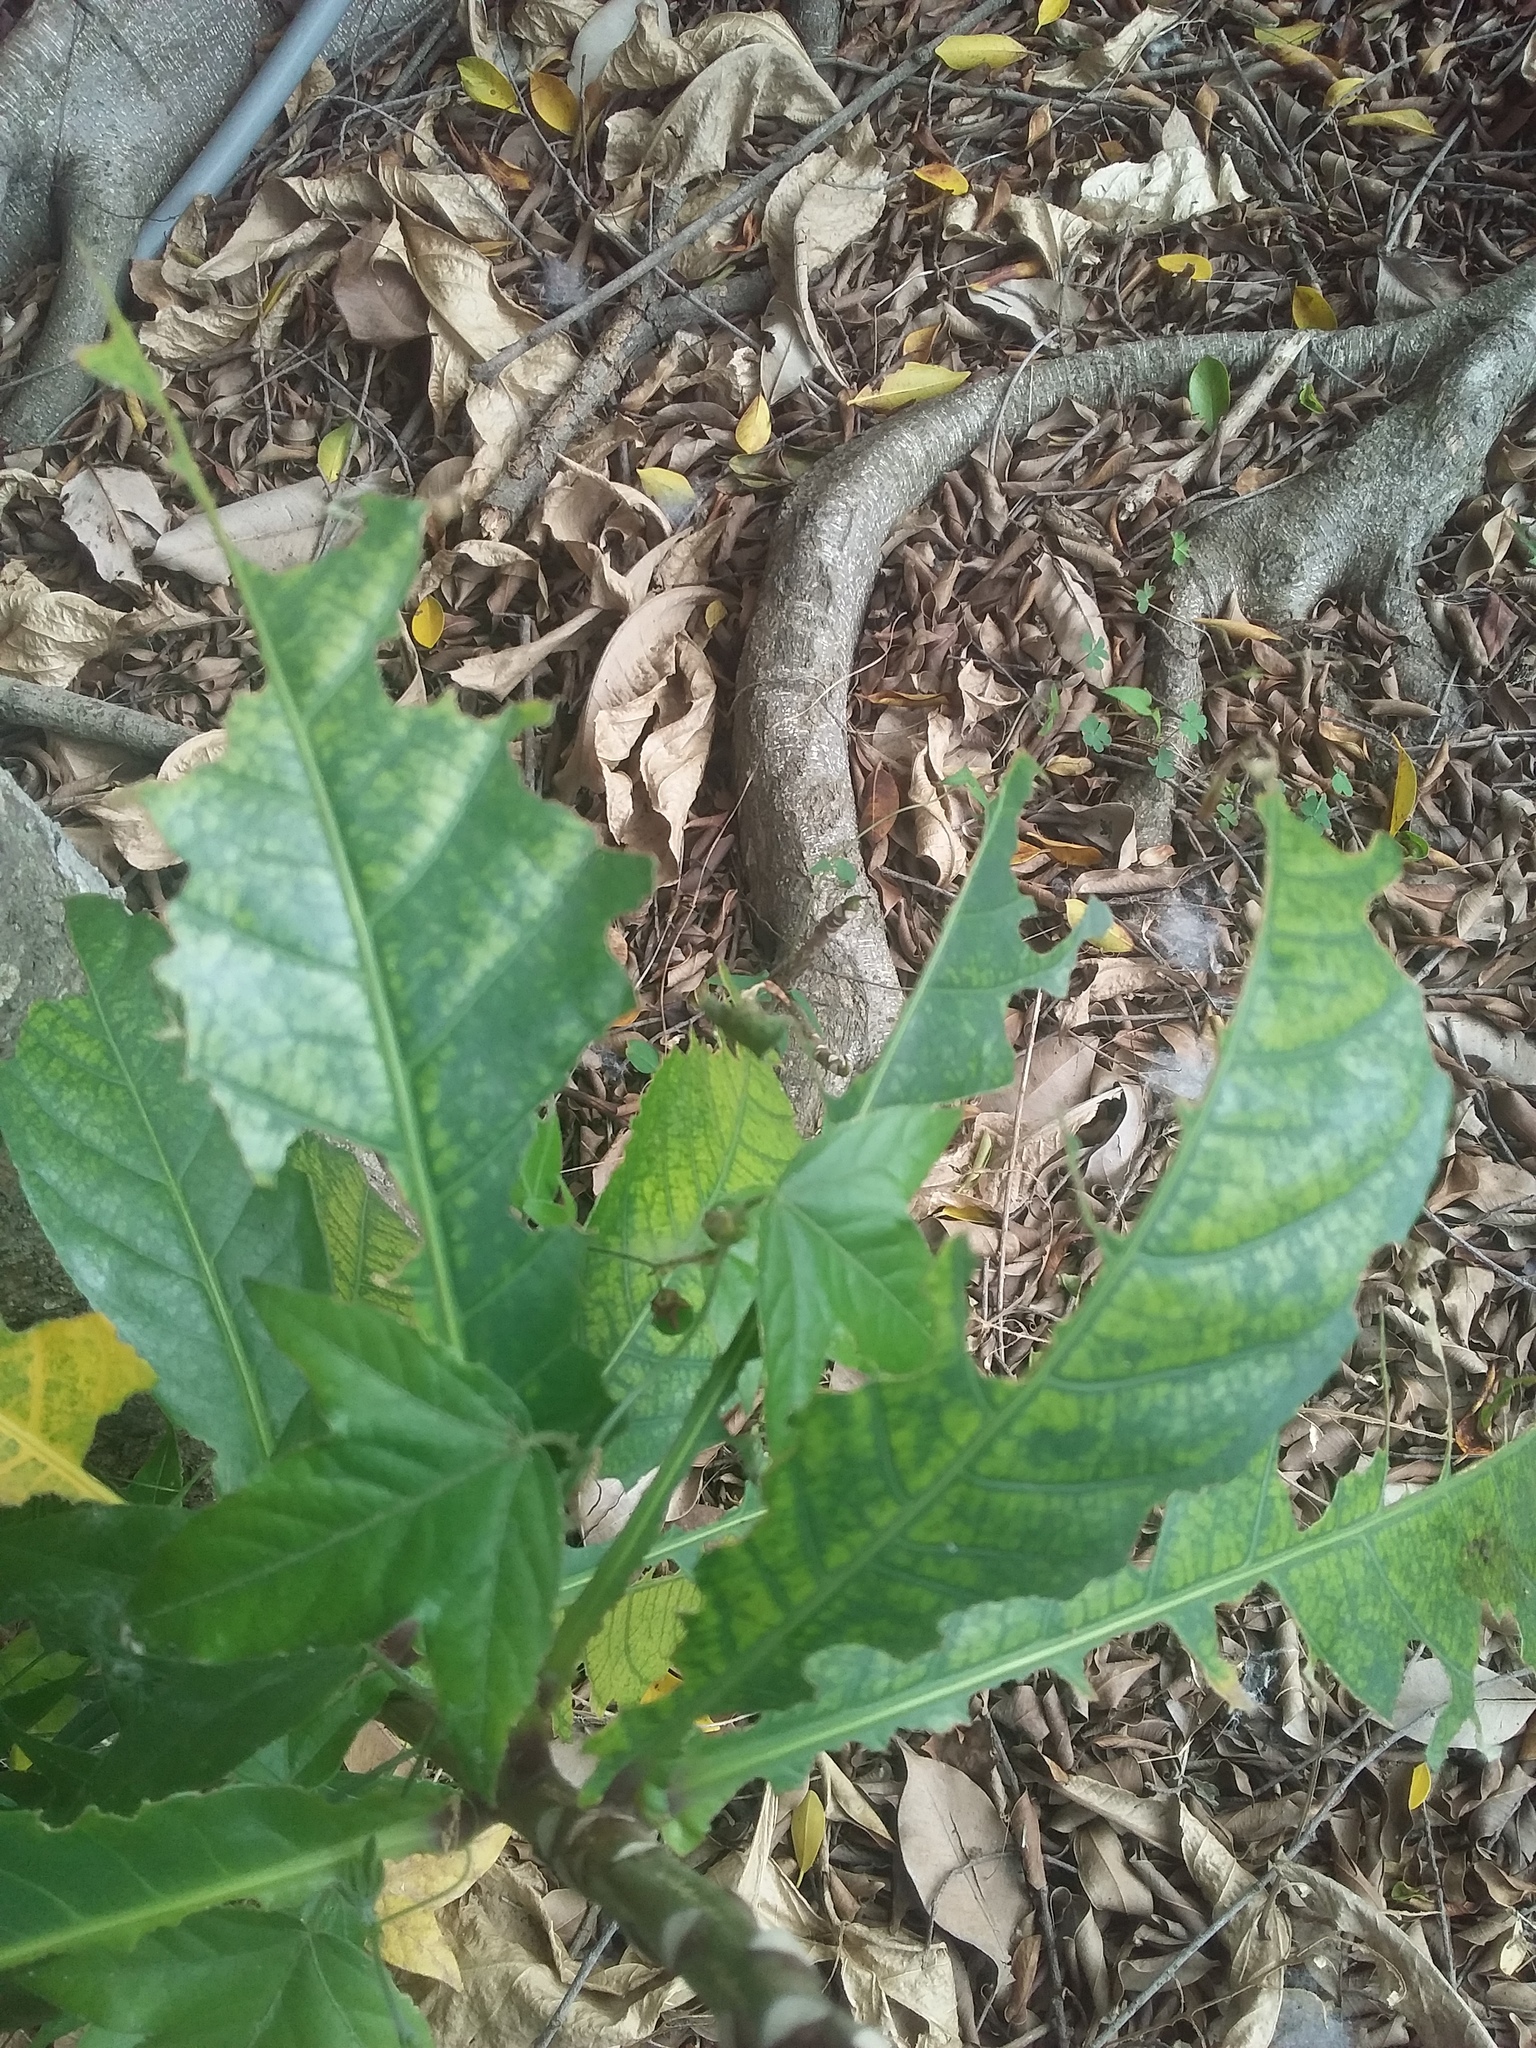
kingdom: Plantae
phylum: Tracheophyta
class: Magnoliopsida
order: Malpighiales
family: Passifloraceae
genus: Passiflora
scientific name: Passiflora suberosa
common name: Wild passionfruit
